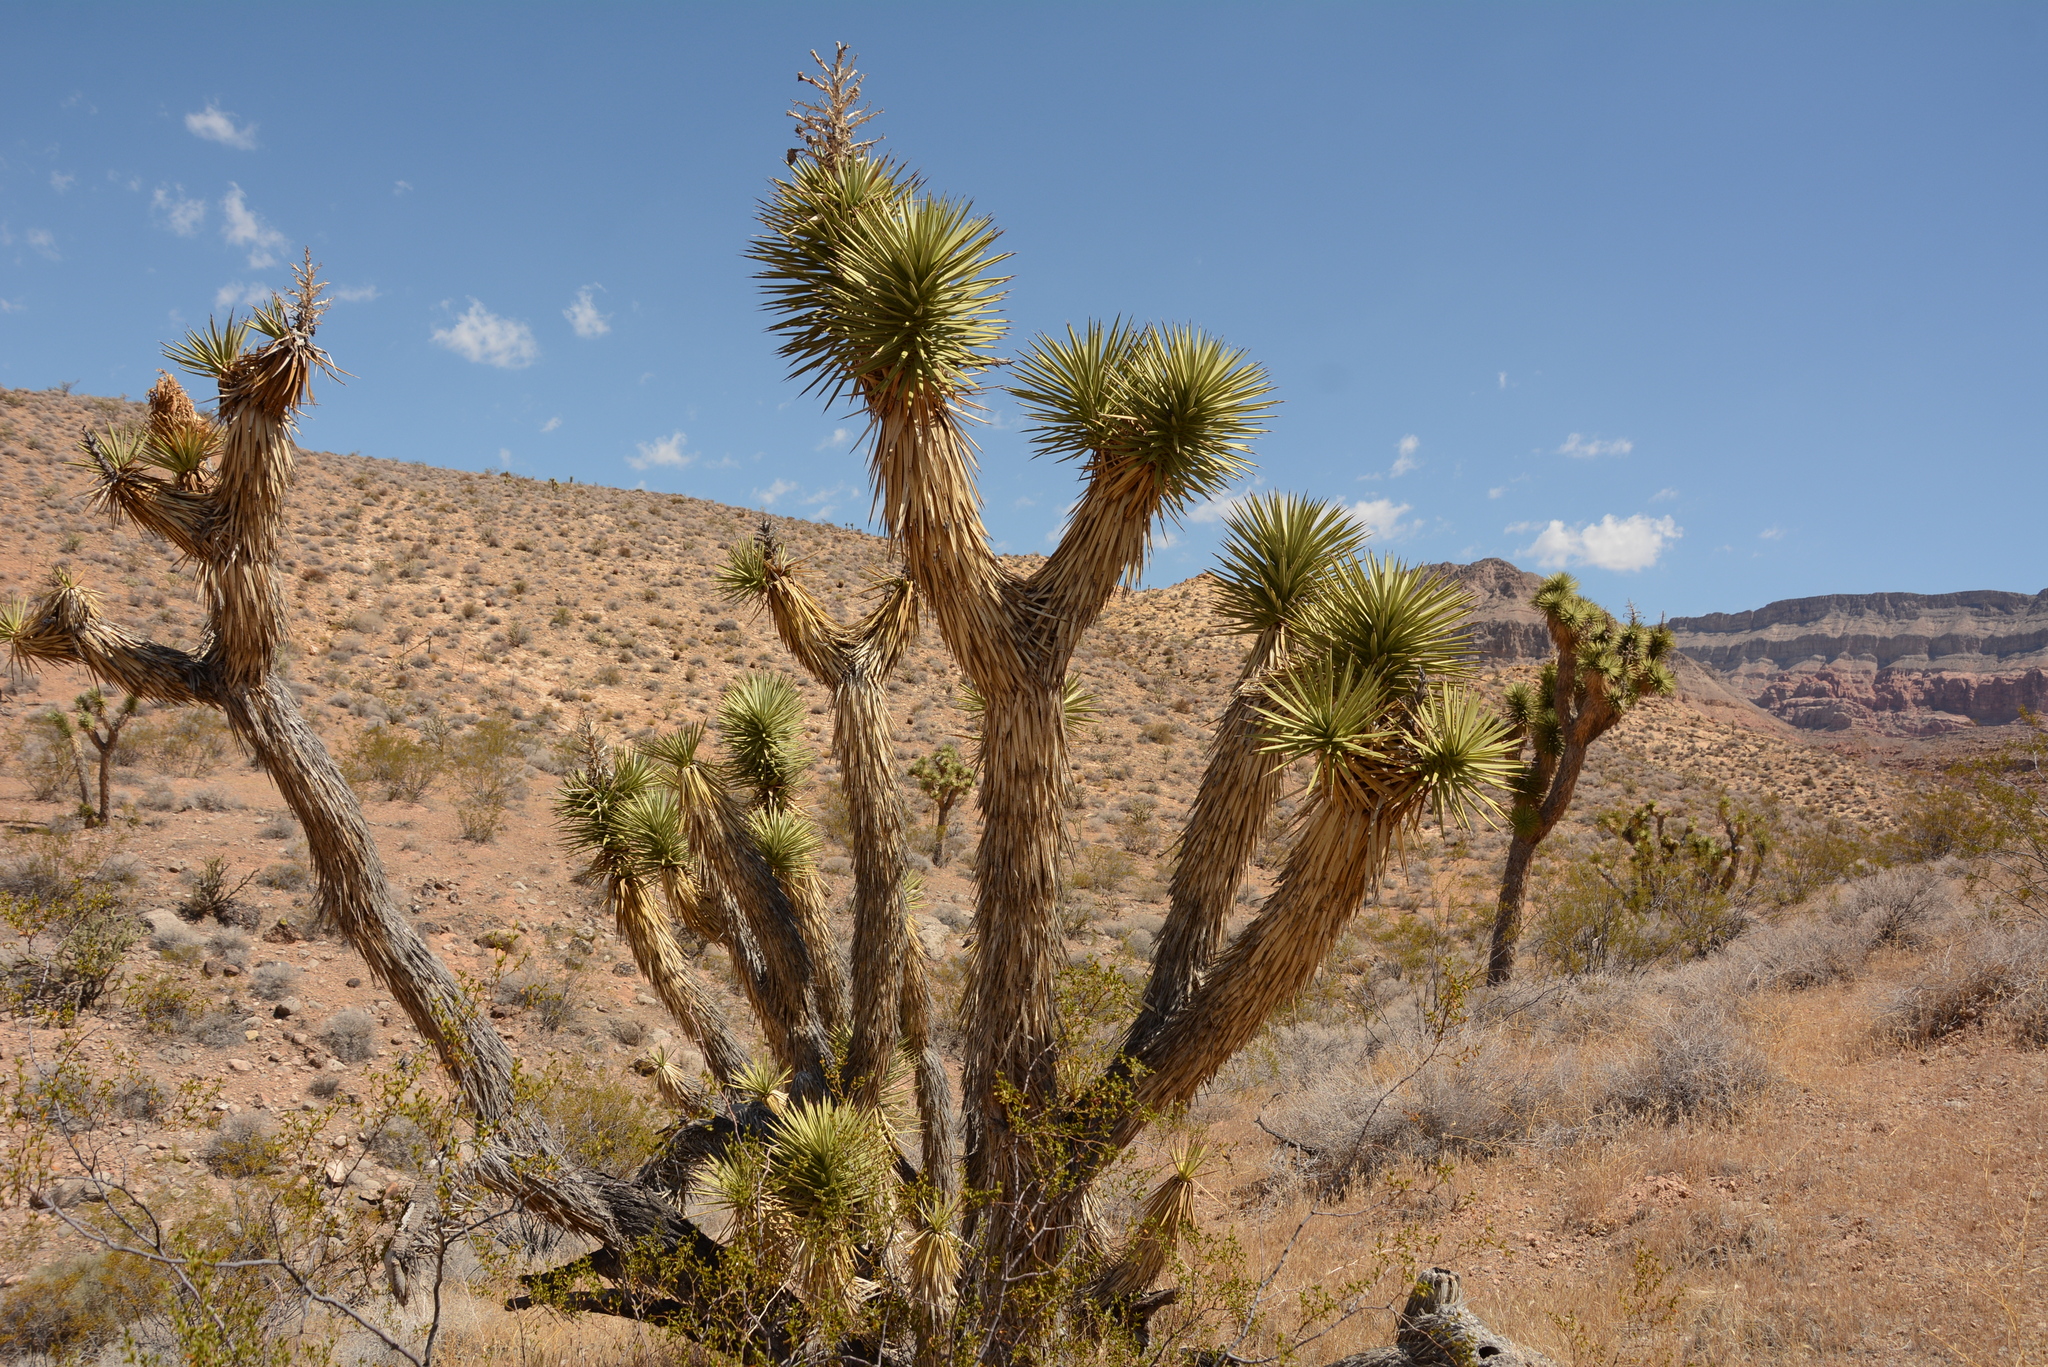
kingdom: Plantae
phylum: Tracheophyta
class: Liliopsida
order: Asparagales
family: Asparagaceae
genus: Yucca
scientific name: Yucca brevifolia
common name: Joshua tree
